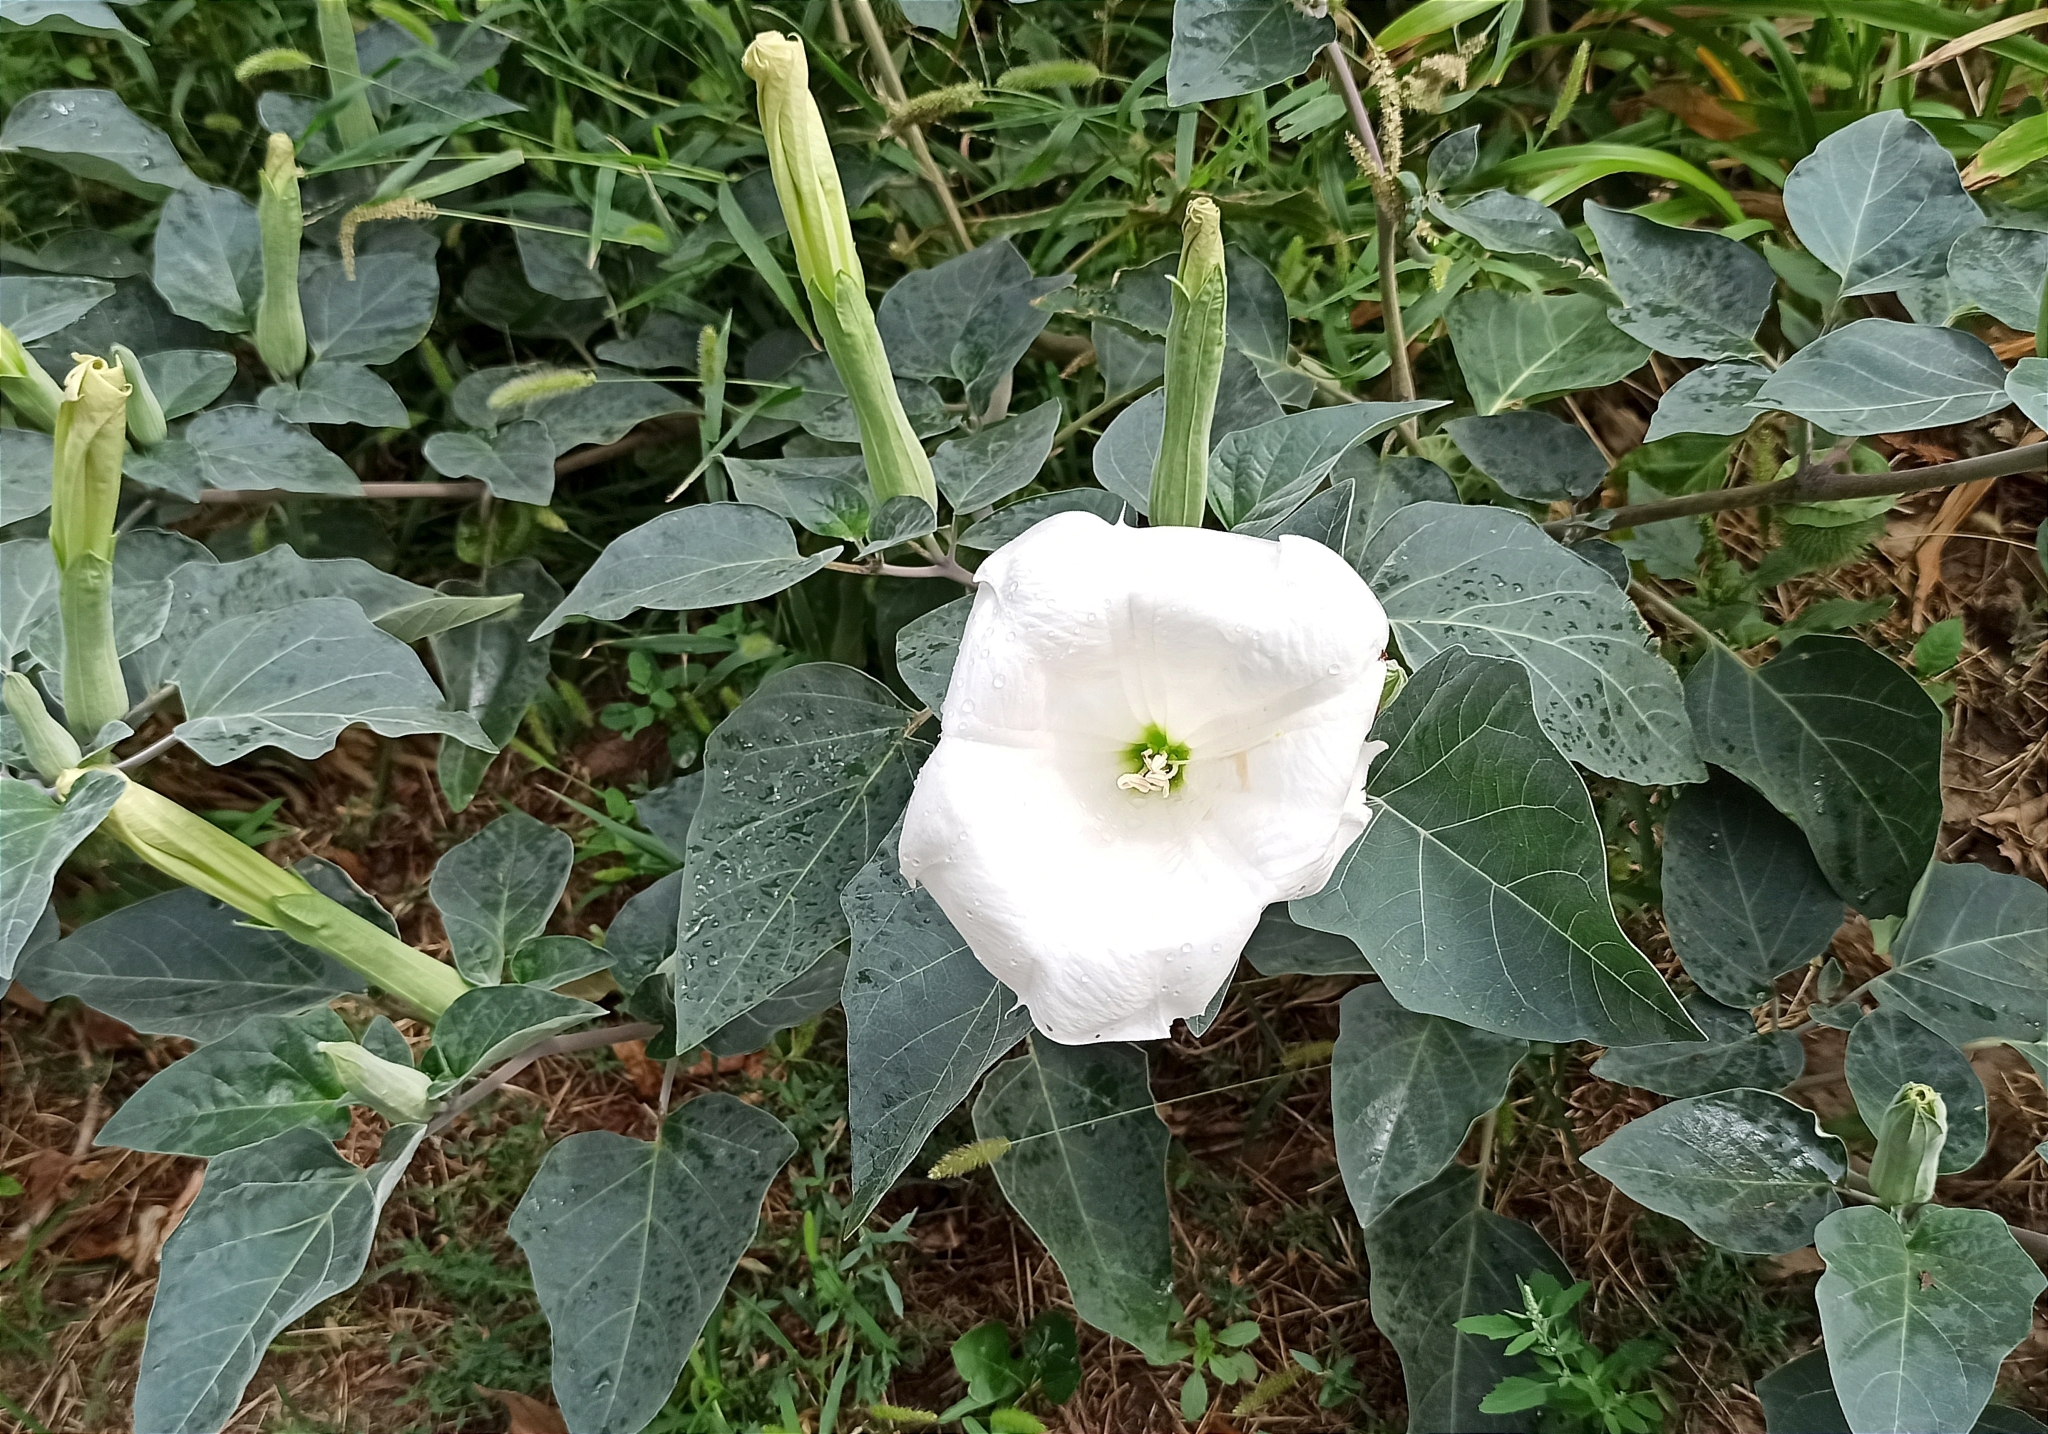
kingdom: Plantae
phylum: Tracheophyta
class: Magnoliopsida
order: Solanales
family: Solanaceae
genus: Datura
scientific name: Datura innoxia
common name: Downy thorn-apple
